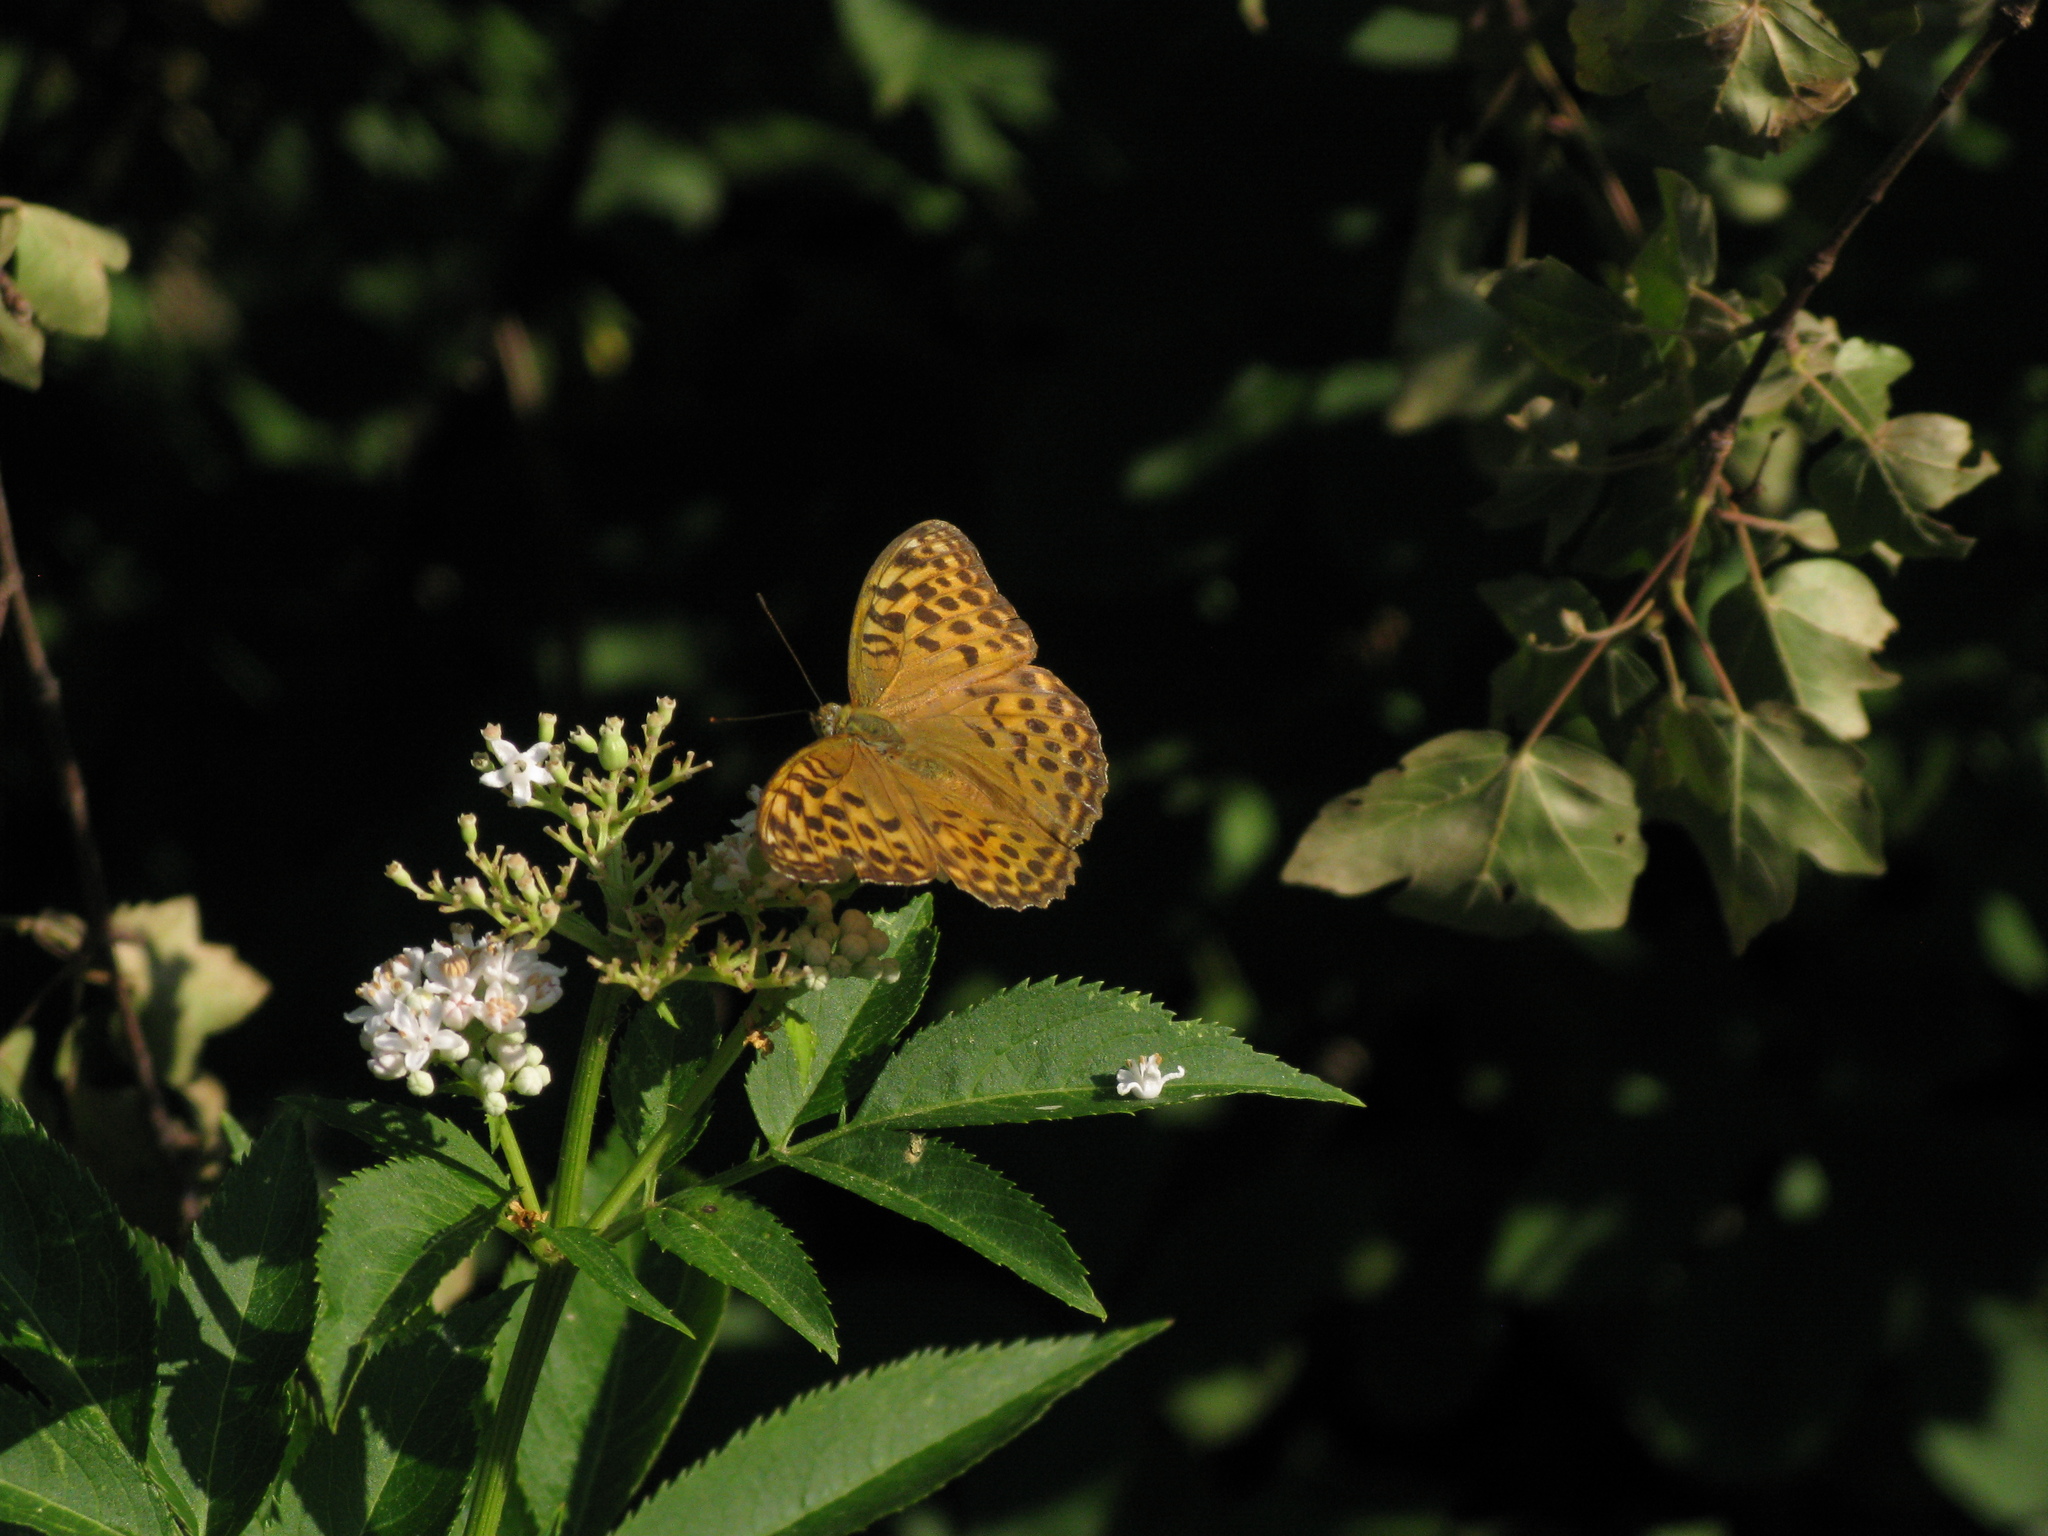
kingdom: Animalia
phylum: Arthropoda
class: Insecta
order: Lepidoptera
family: Nymphalidae
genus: Argynnis
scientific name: Argynnis paphia
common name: Silver-washed fritillary
